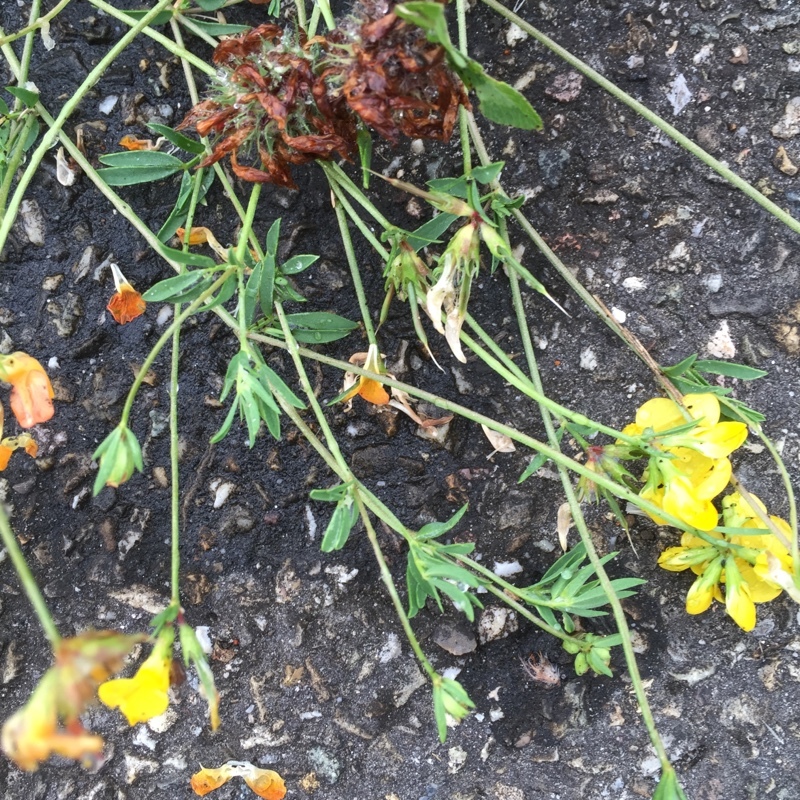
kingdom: Plantae
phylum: Tracheophyta
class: Magnoliopsida
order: Fabales
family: Fabaceae
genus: Lotus
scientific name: Lotus tenuis
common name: Narrow-leaved bird's-foot-trefoil
